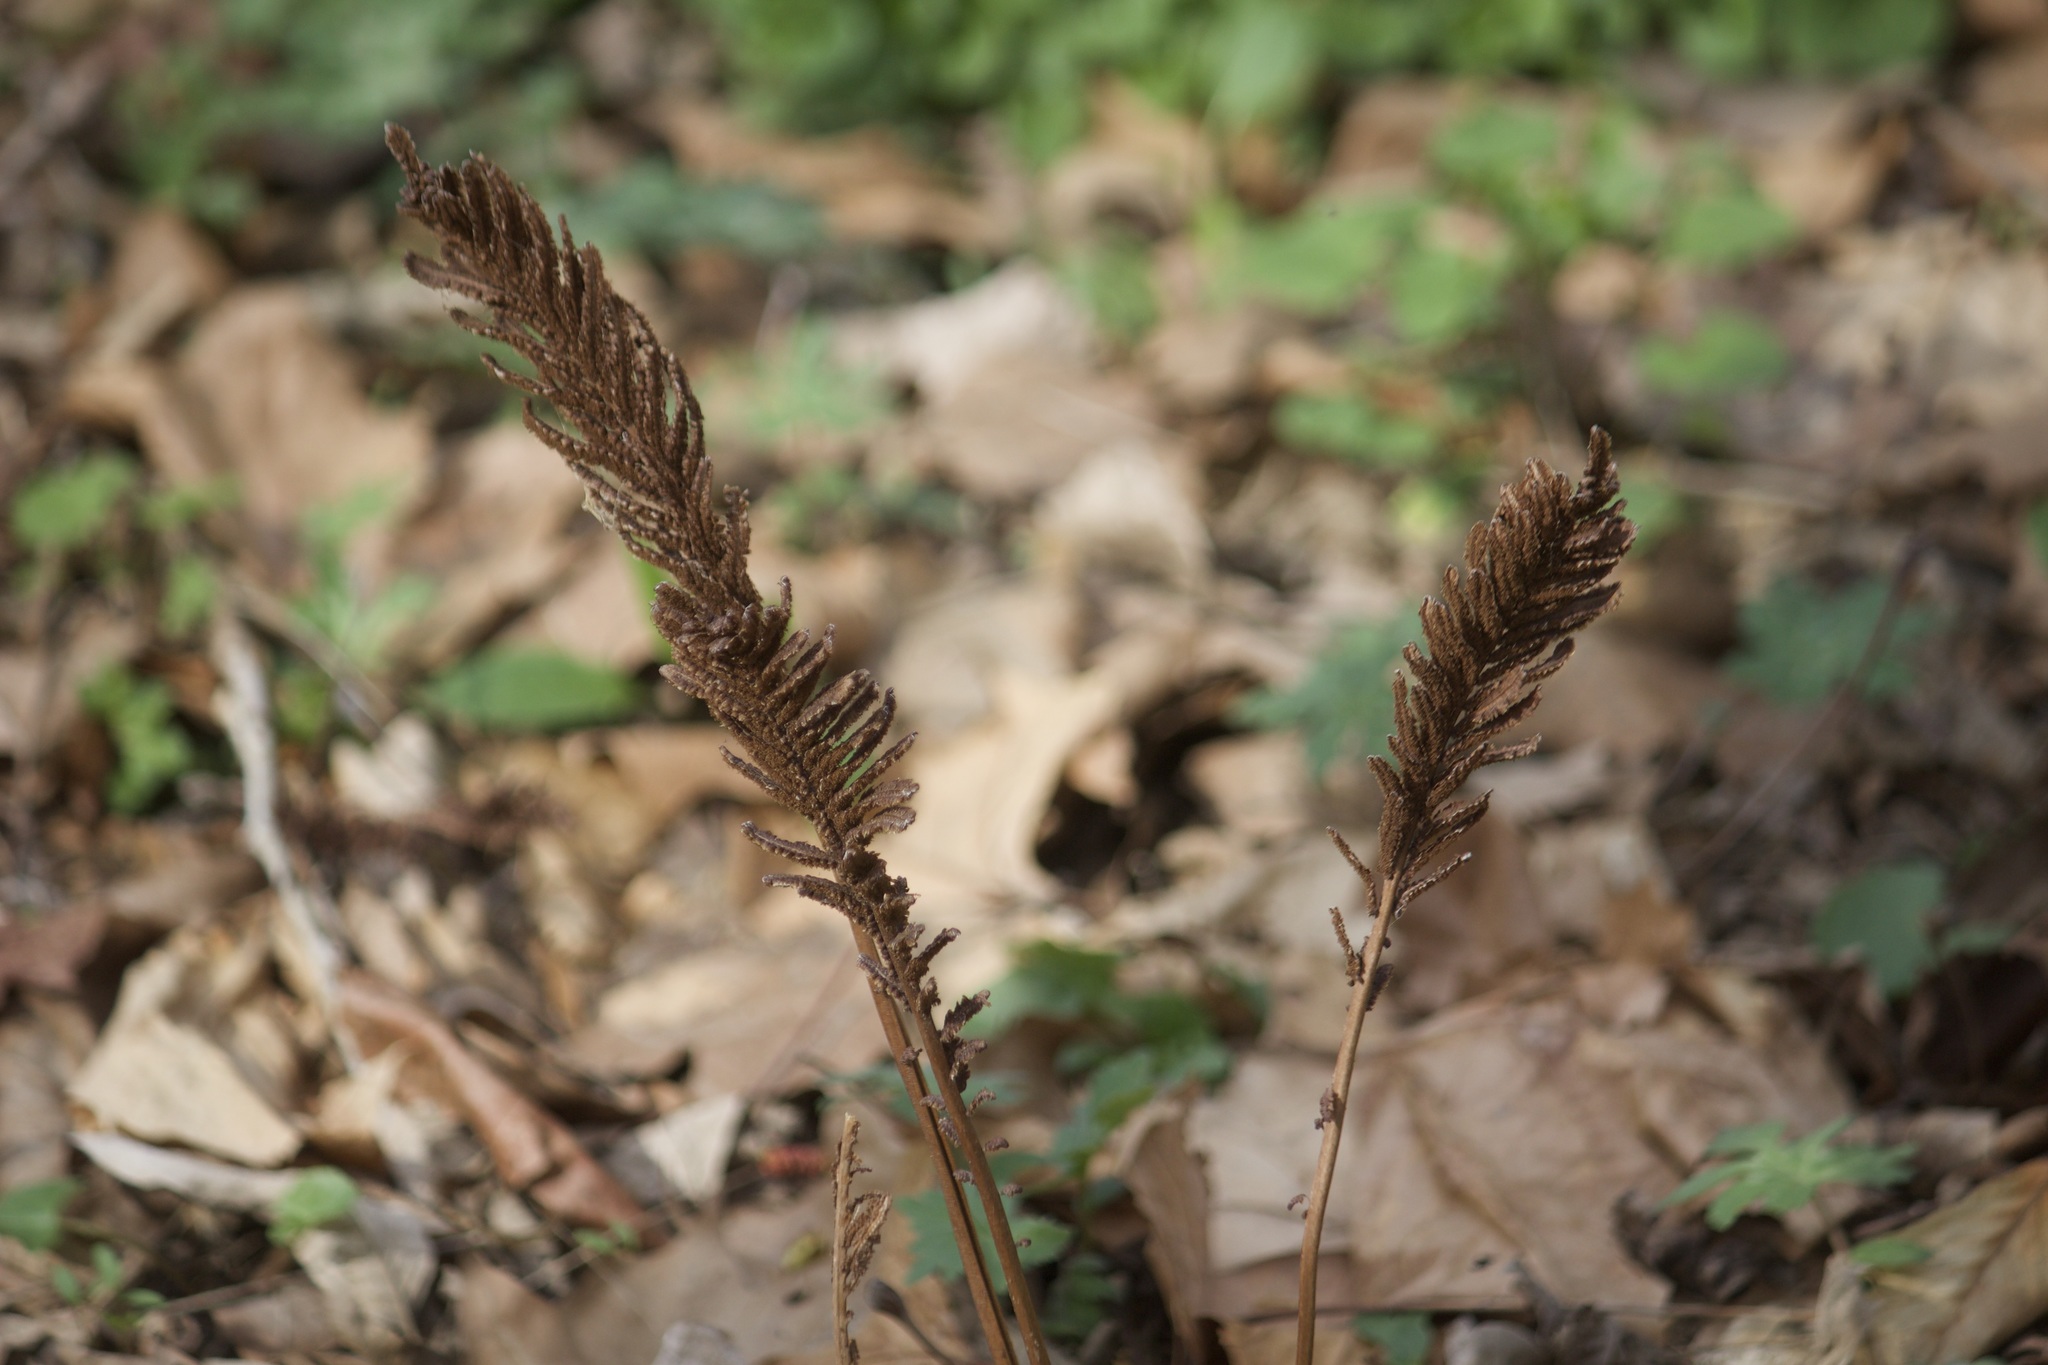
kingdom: Plantae
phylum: Tracheophyta
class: Polypodiopsida
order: Polypodiales
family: Onocleaceae
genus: Matteuccia
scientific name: Matteuccia struthiopteris
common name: Ostrich fern
